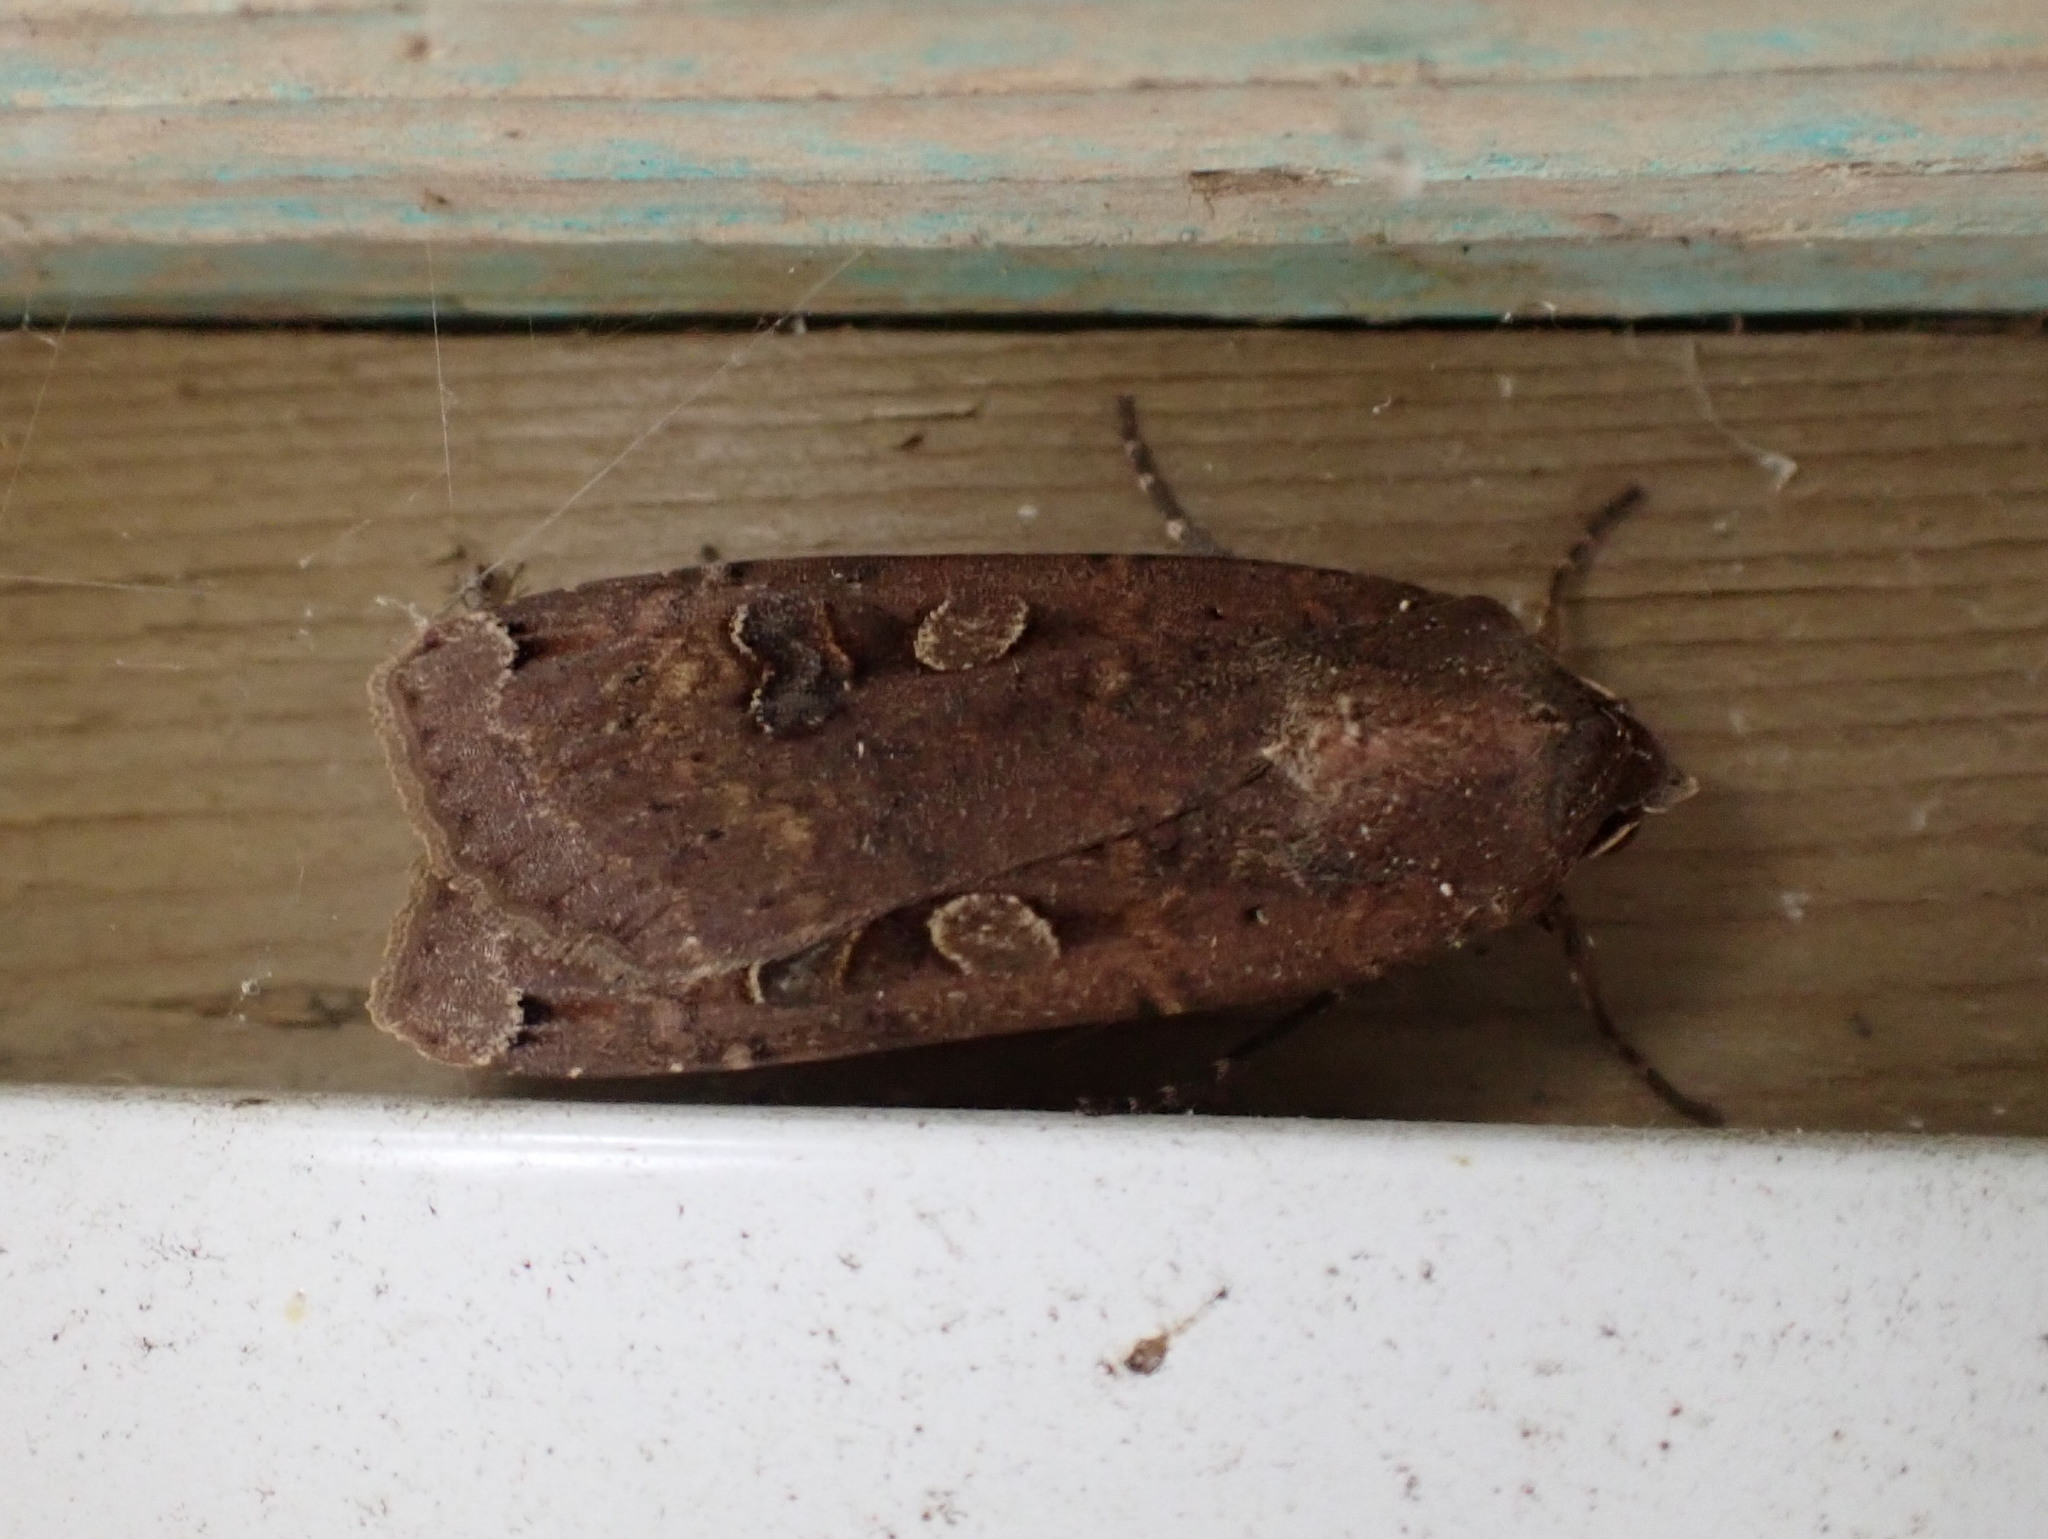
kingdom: Animalia
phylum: Arthropoda
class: Insecta
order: Lepidoptera
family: Noctuidae
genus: Noctua
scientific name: Noctua pronuba
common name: Large yellow underwing
